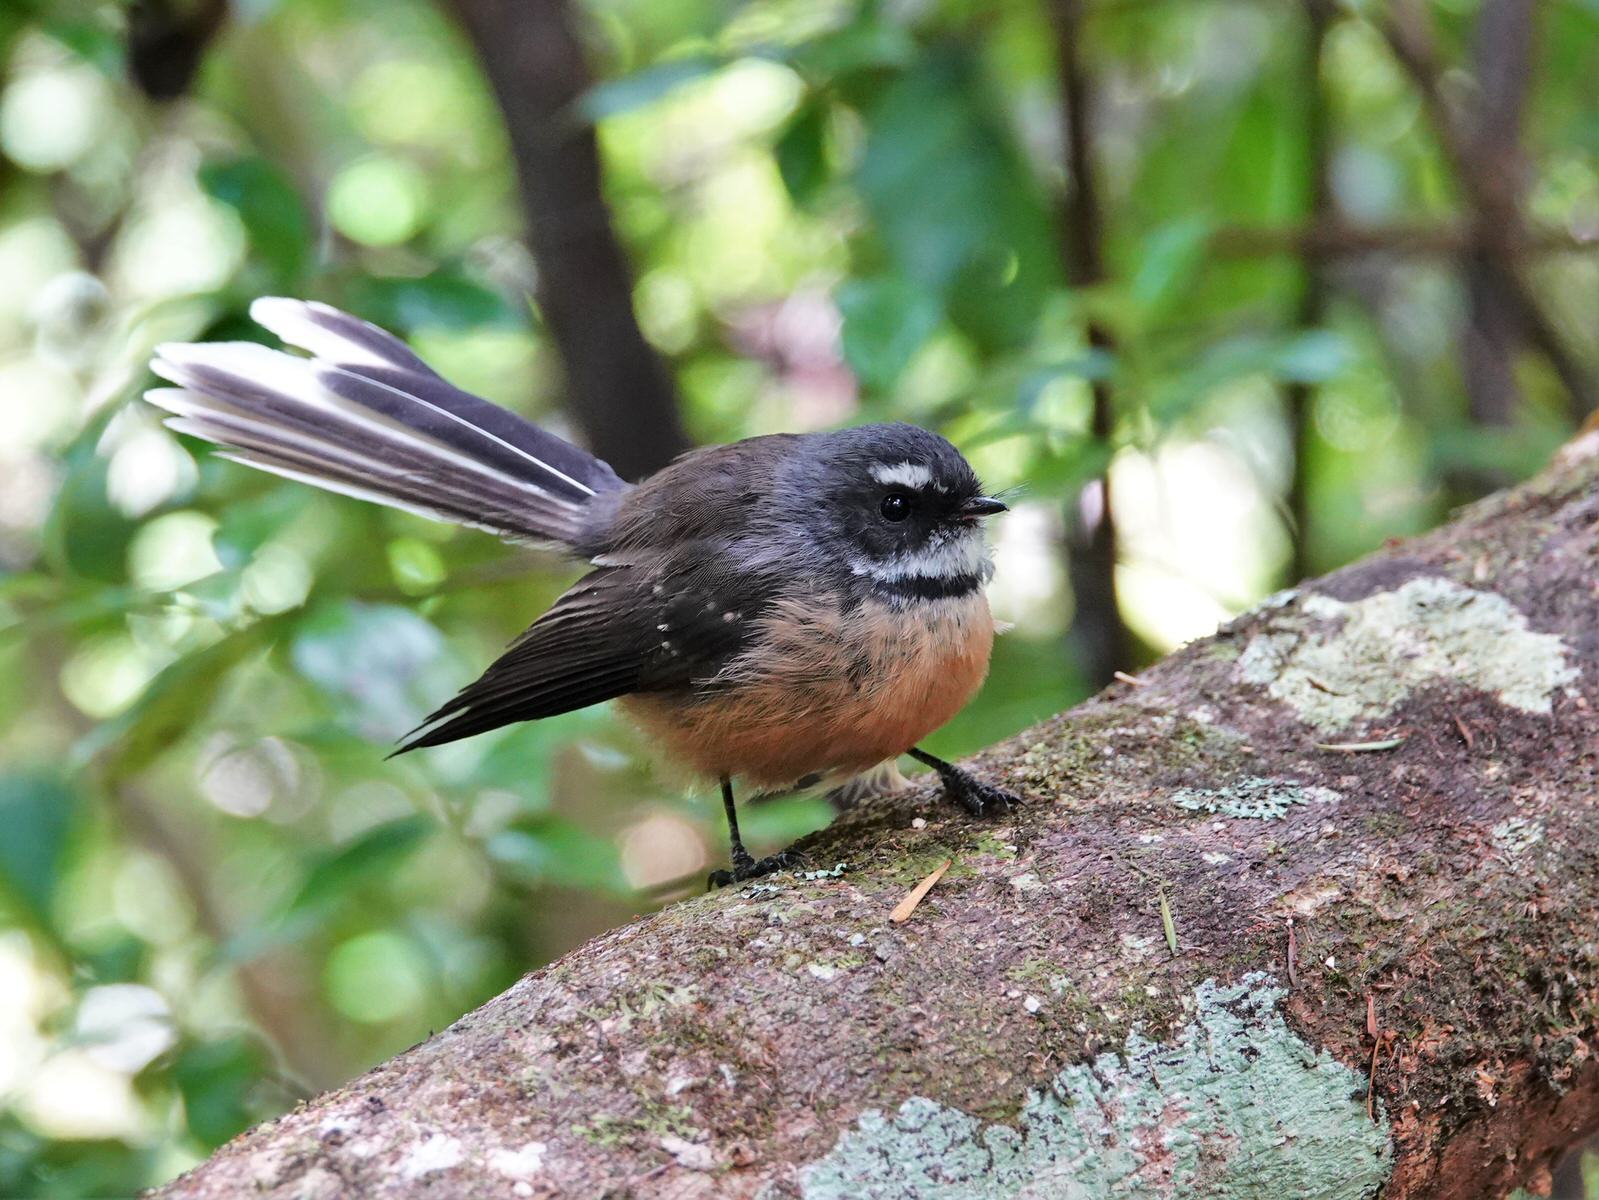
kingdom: Animalia
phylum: Chordata
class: Aves
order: Passeriformes
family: Rhipiduridae
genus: Rhipidura
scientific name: Rhipidura fuliginosa
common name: New zealand fantail
